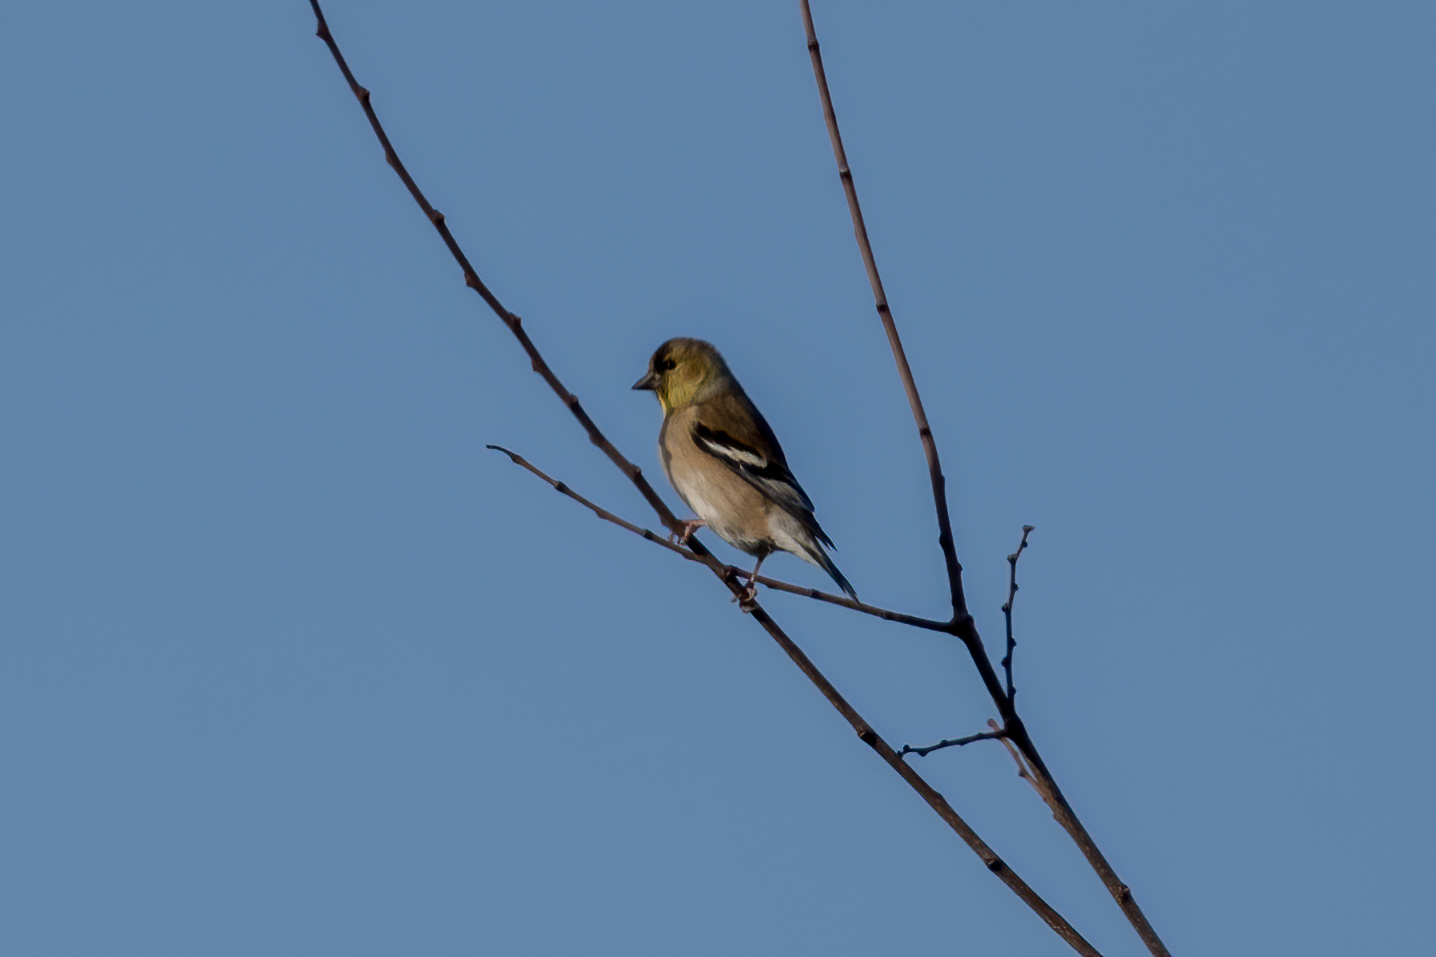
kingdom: Animalia
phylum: Chordata
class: Aves
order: Passeriformes
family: Fringillidae
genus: Spinus
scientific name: Spinus tristis
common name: American goldfinch
